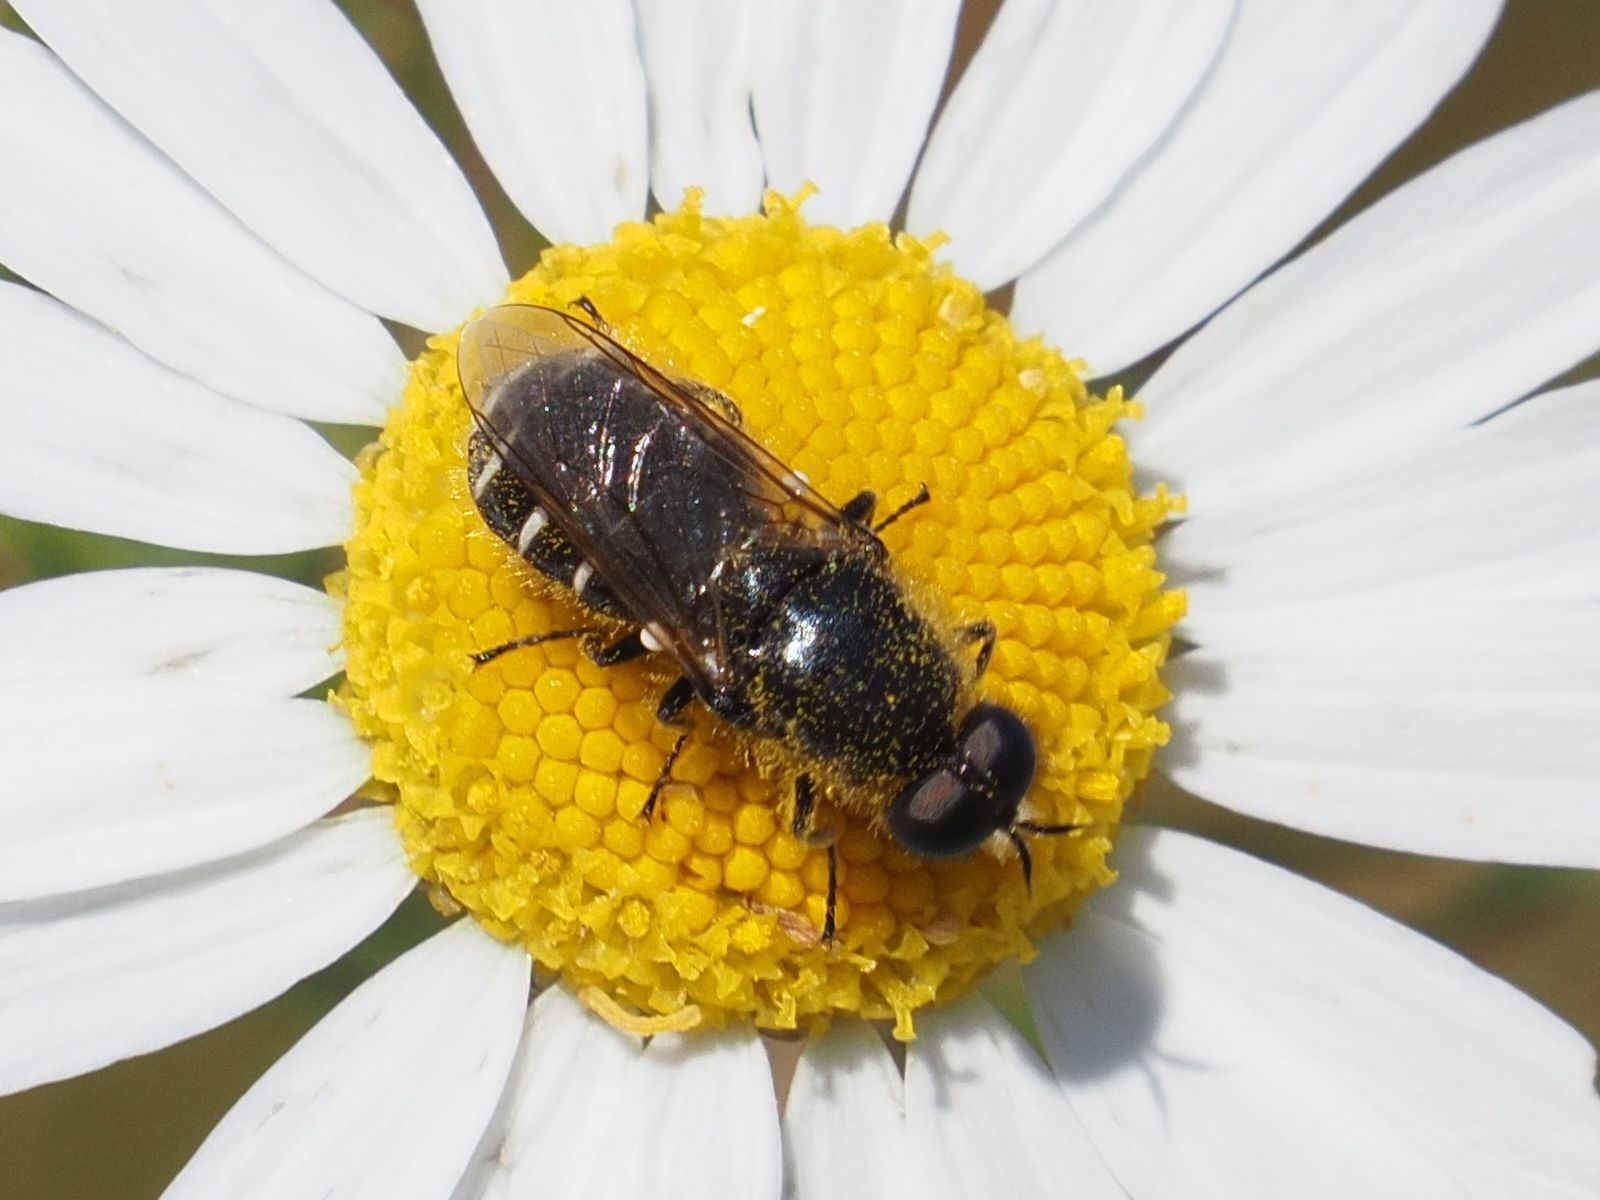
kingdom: Animalia
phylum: Arthropoda
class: Insecta
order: Diptera
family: Stratiomyidae
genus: Lasiopa
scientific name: Lasiopa villosa
